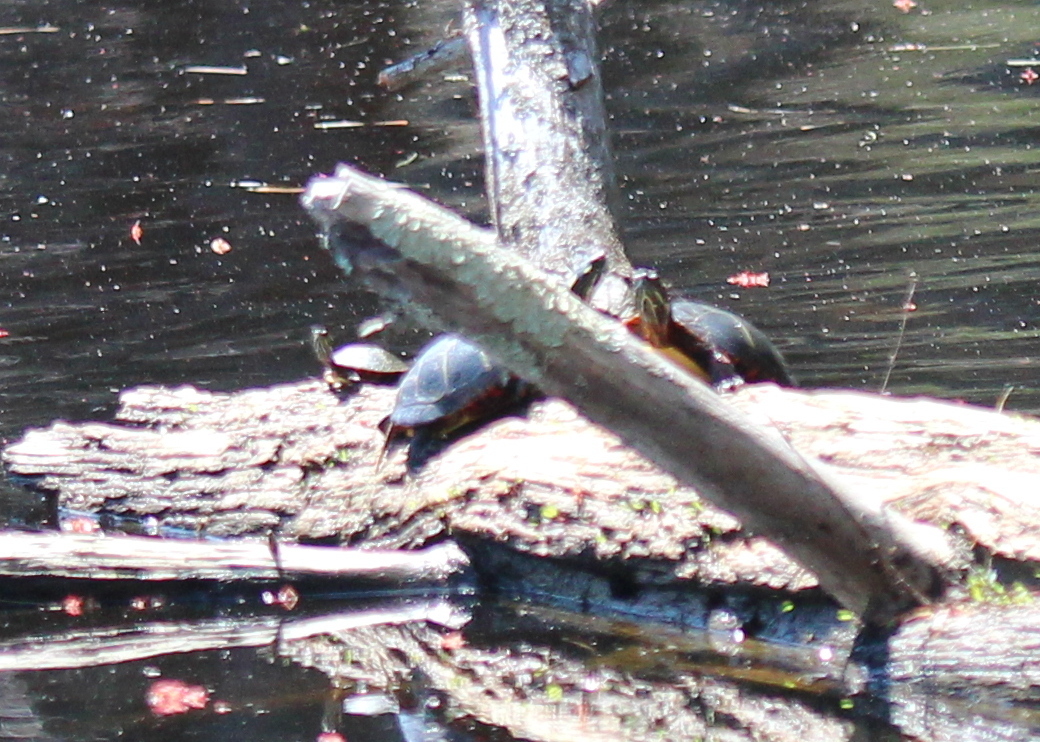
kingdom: Animalia
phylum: Chordata
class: Testudines
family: Emydidae
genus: Chrysemys
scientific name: Chrysemys picta
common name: Painted turtle
